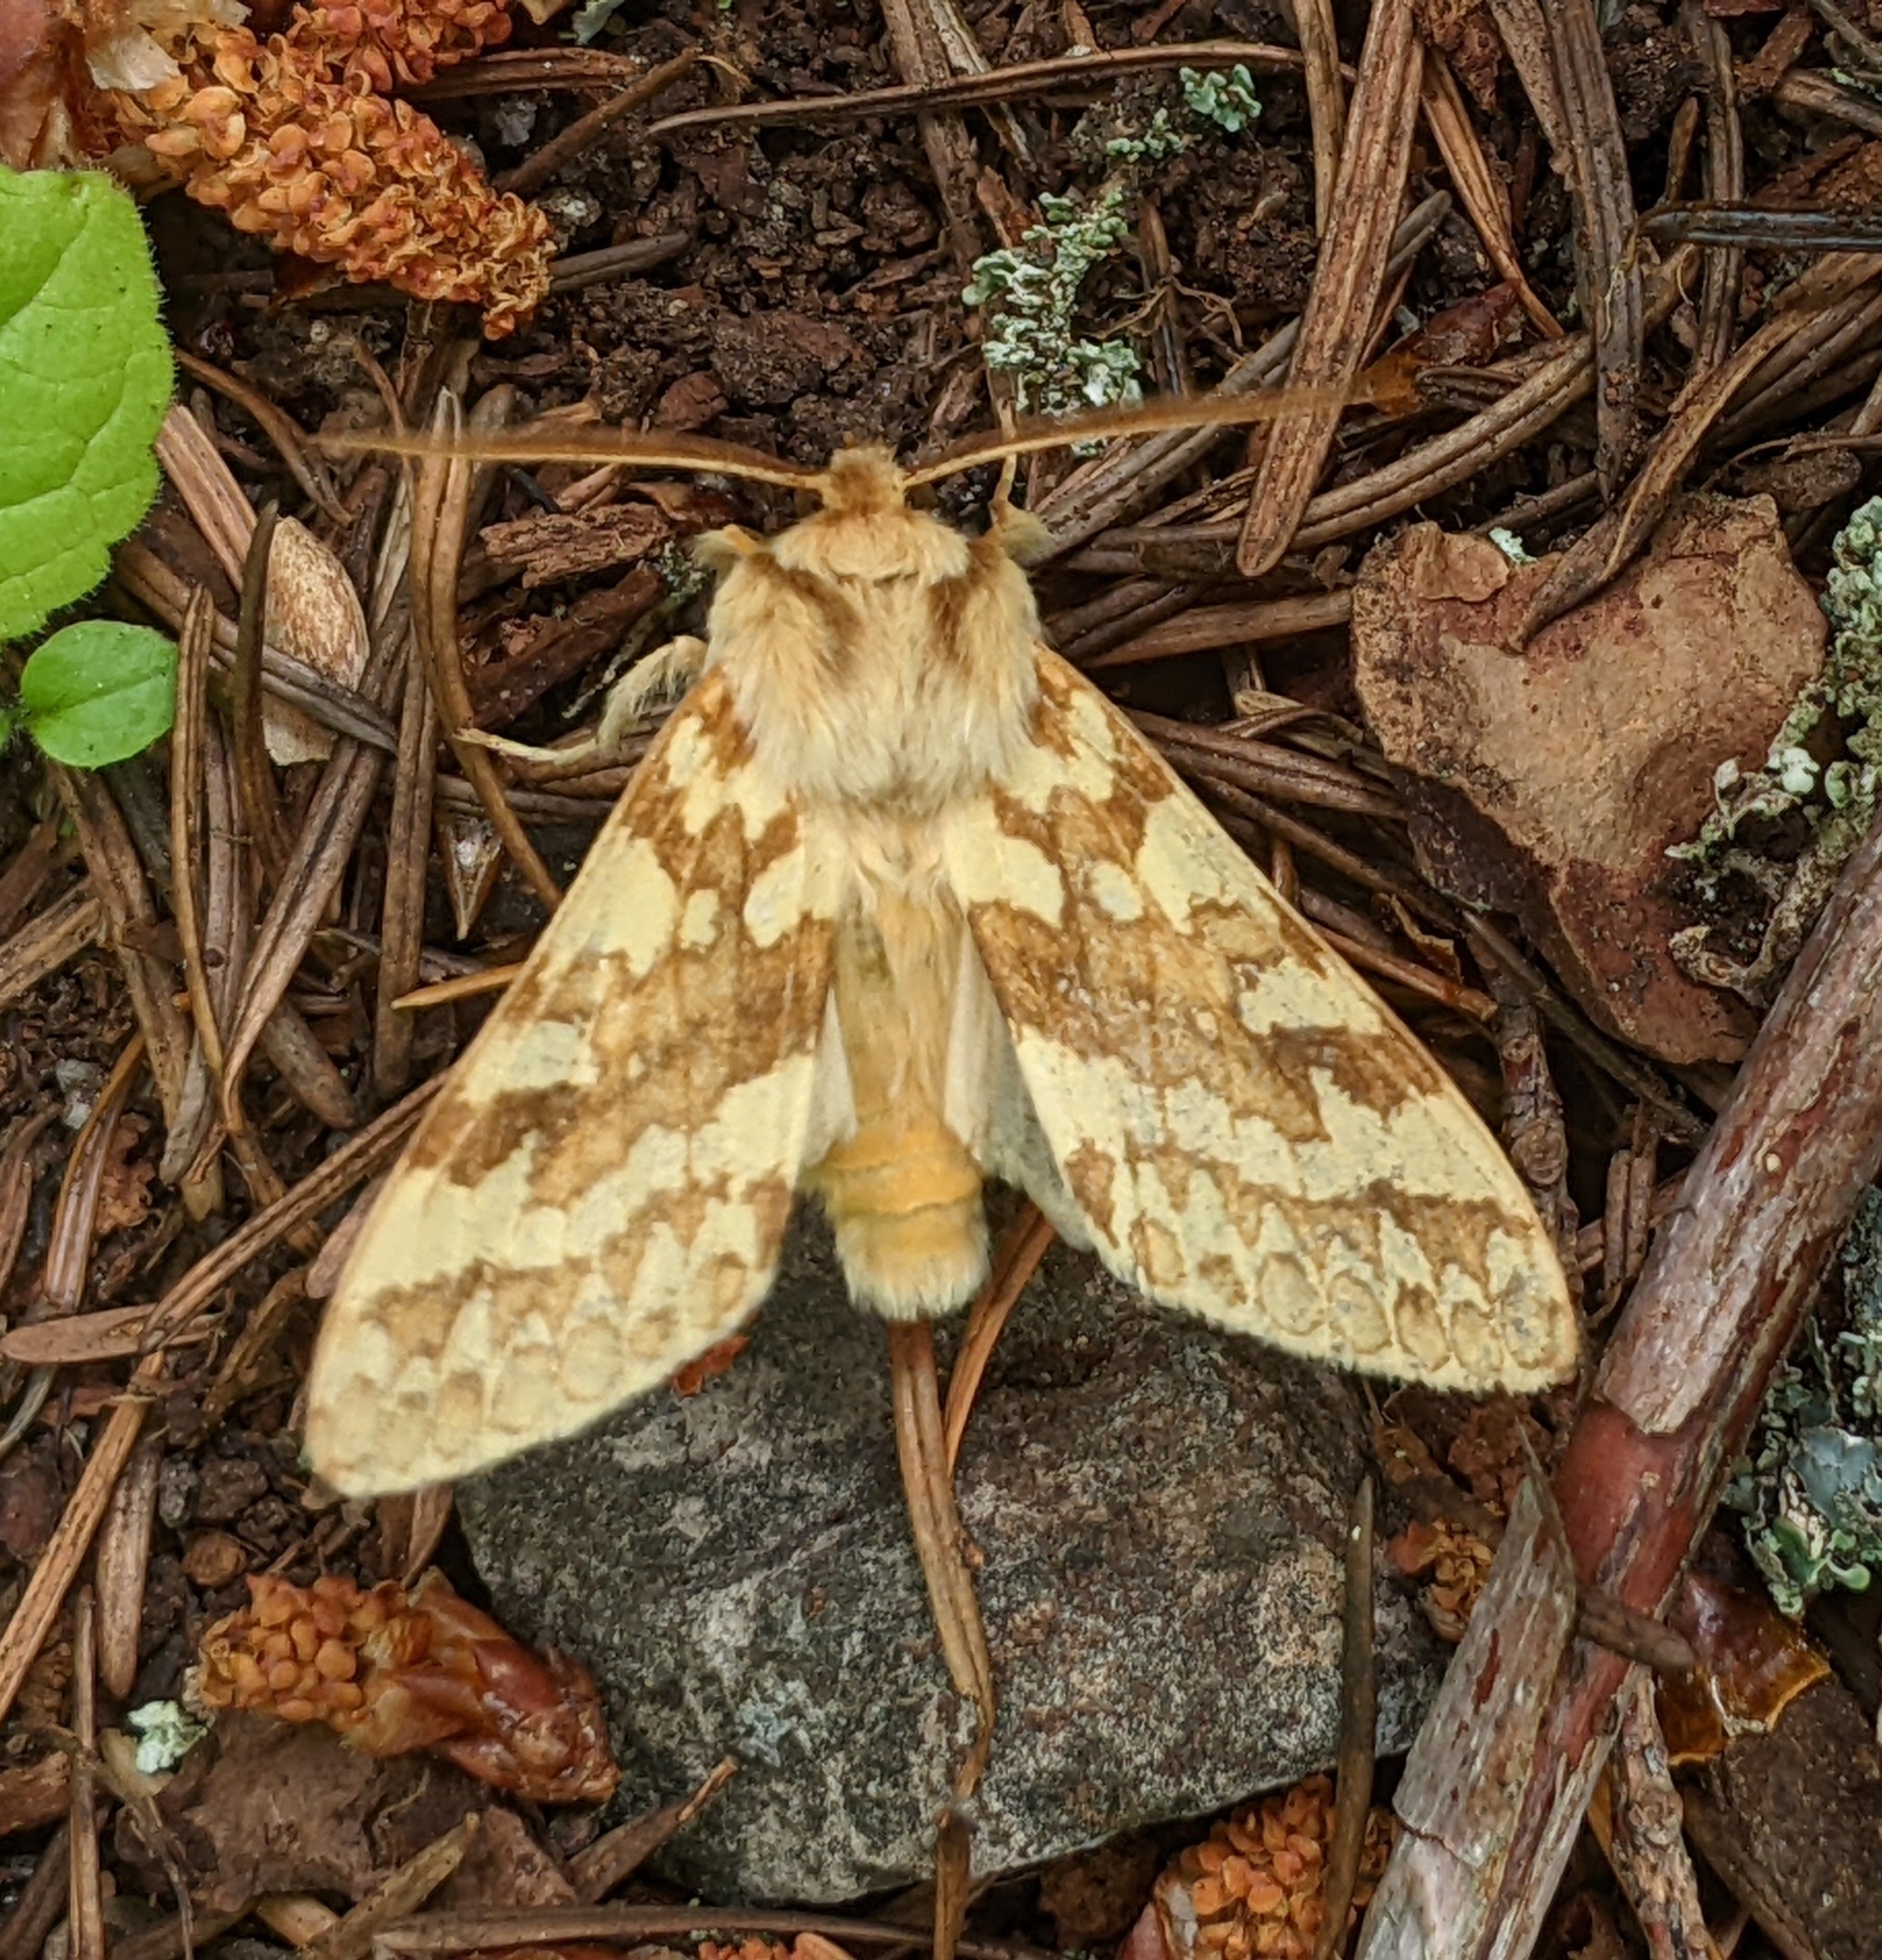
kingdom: Animalia
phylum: Arthropoda
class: Insecta
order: Lepidoptera
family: Erebidae
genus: Lophocampa
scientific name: Lophocampa maculata
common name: Spotted tussock moth
